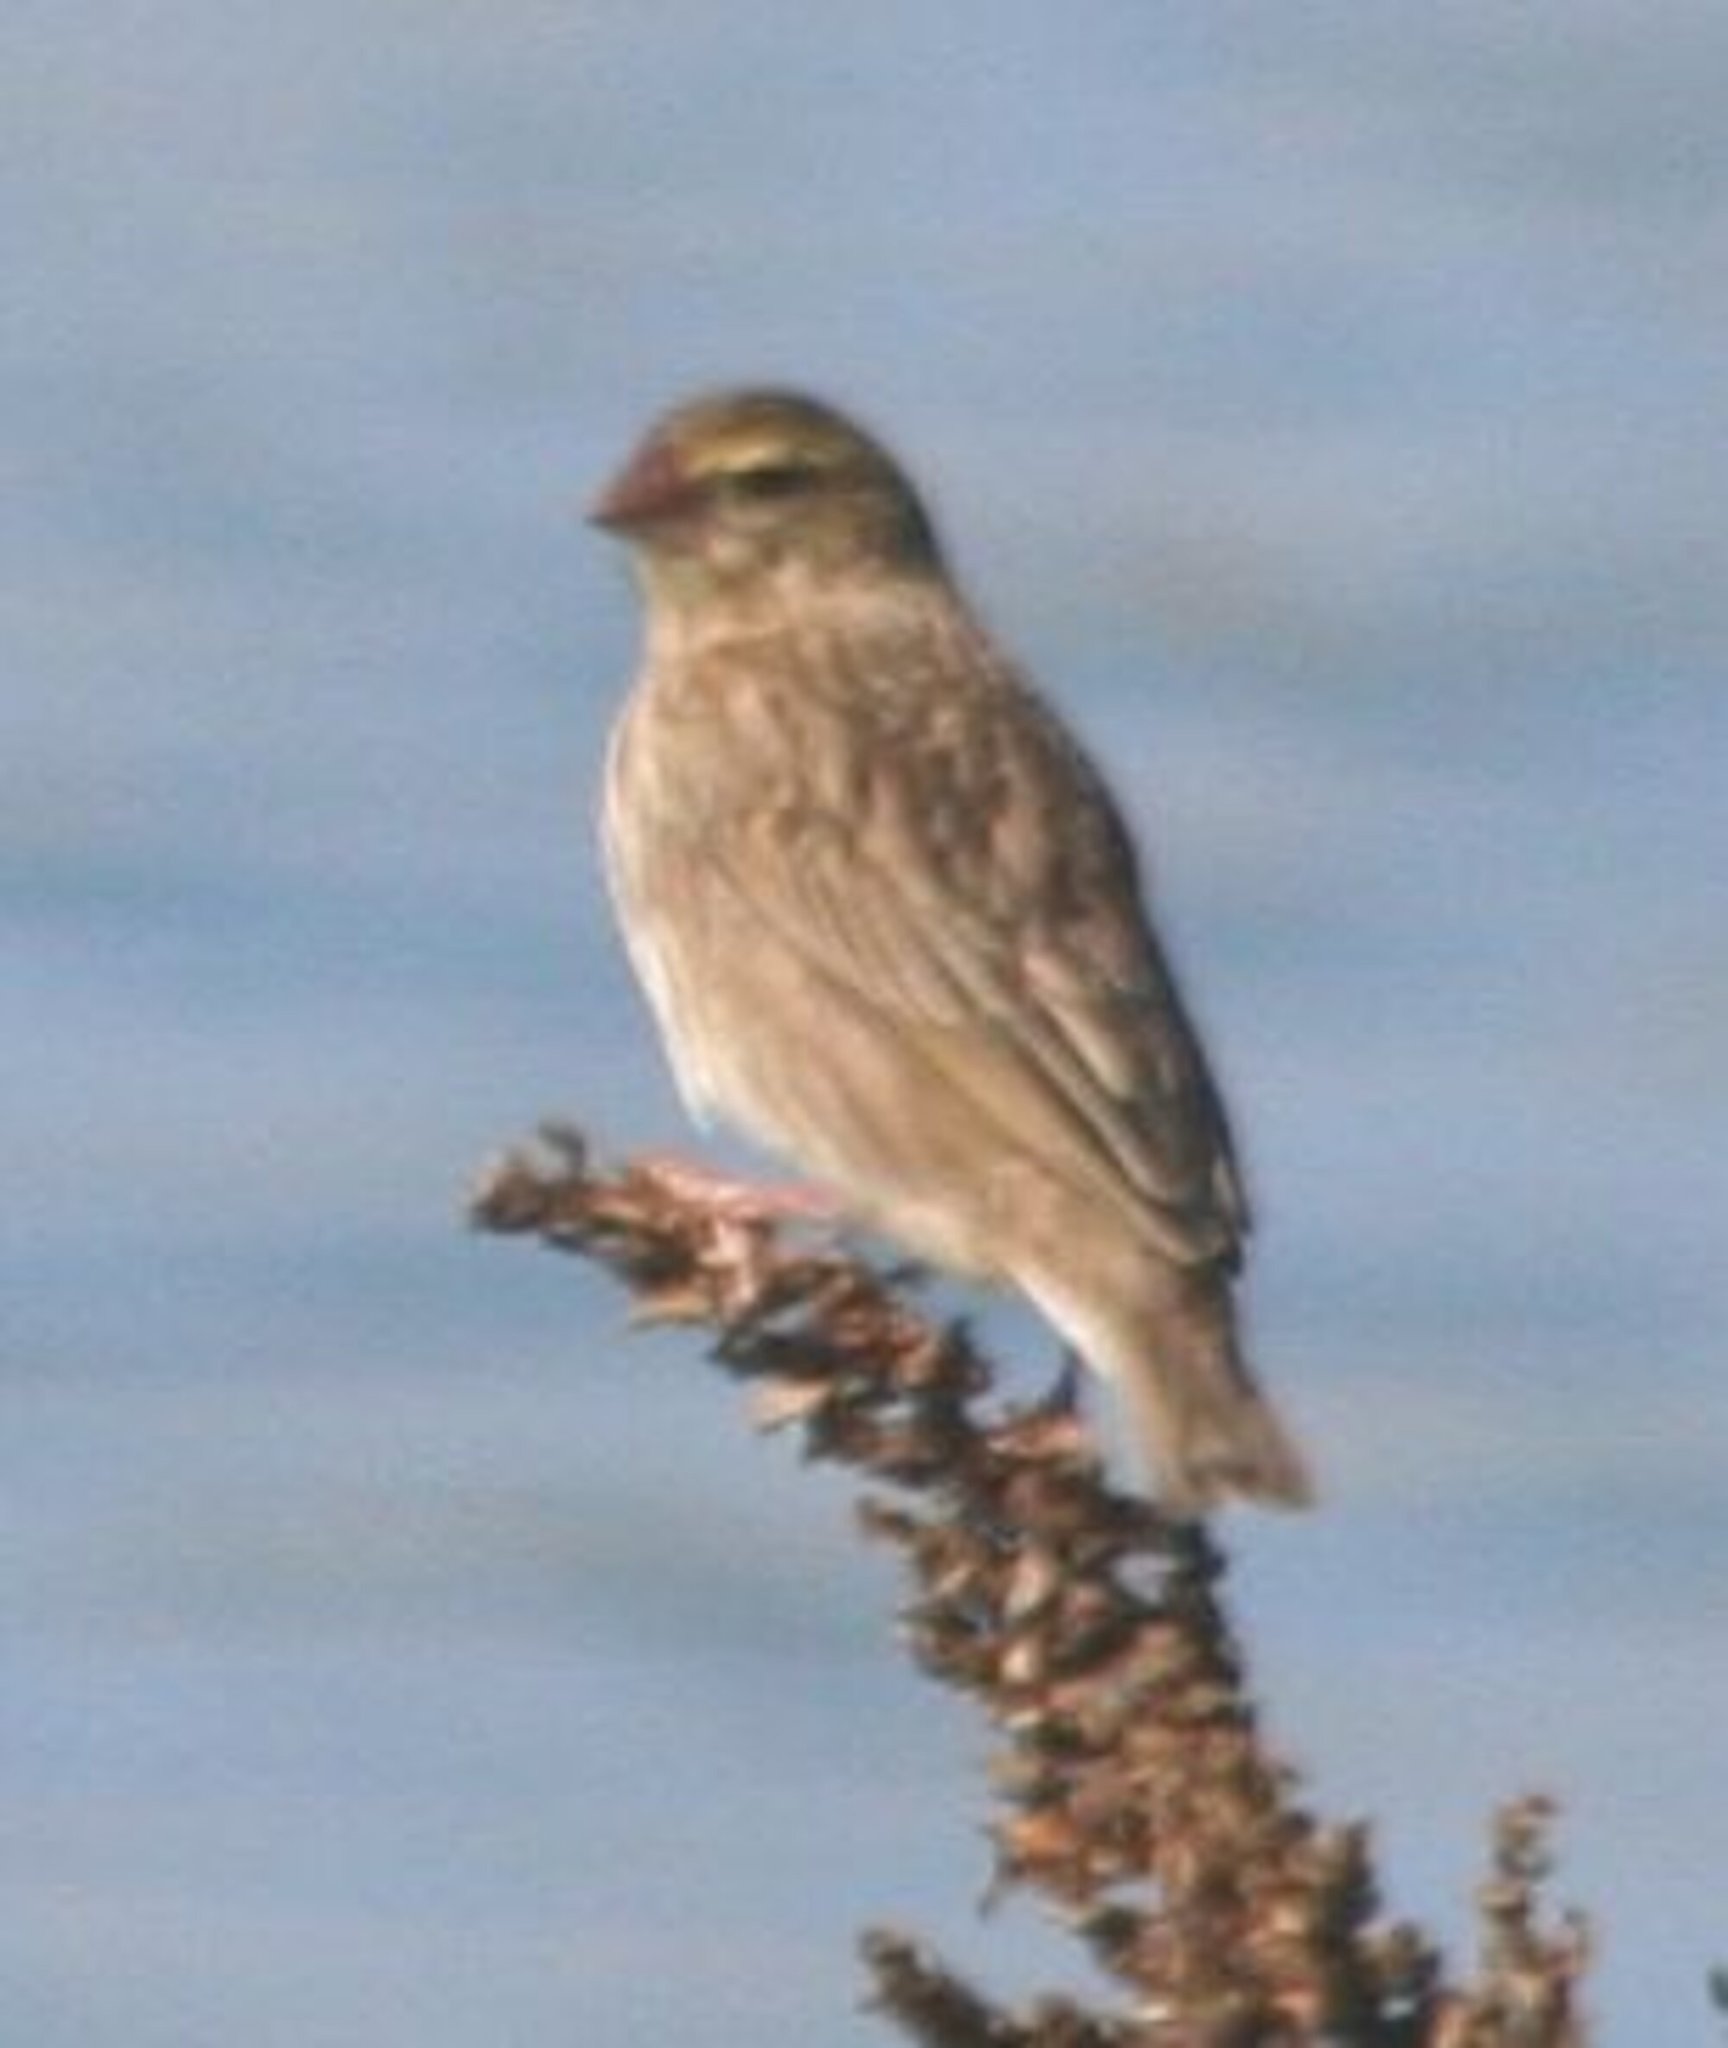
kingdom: Animalia
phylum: Chordata
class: Aves
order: Passeriformes
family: Ploceidae
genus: Euplectes
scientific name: Euplectes orix
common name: Southern red bishop
